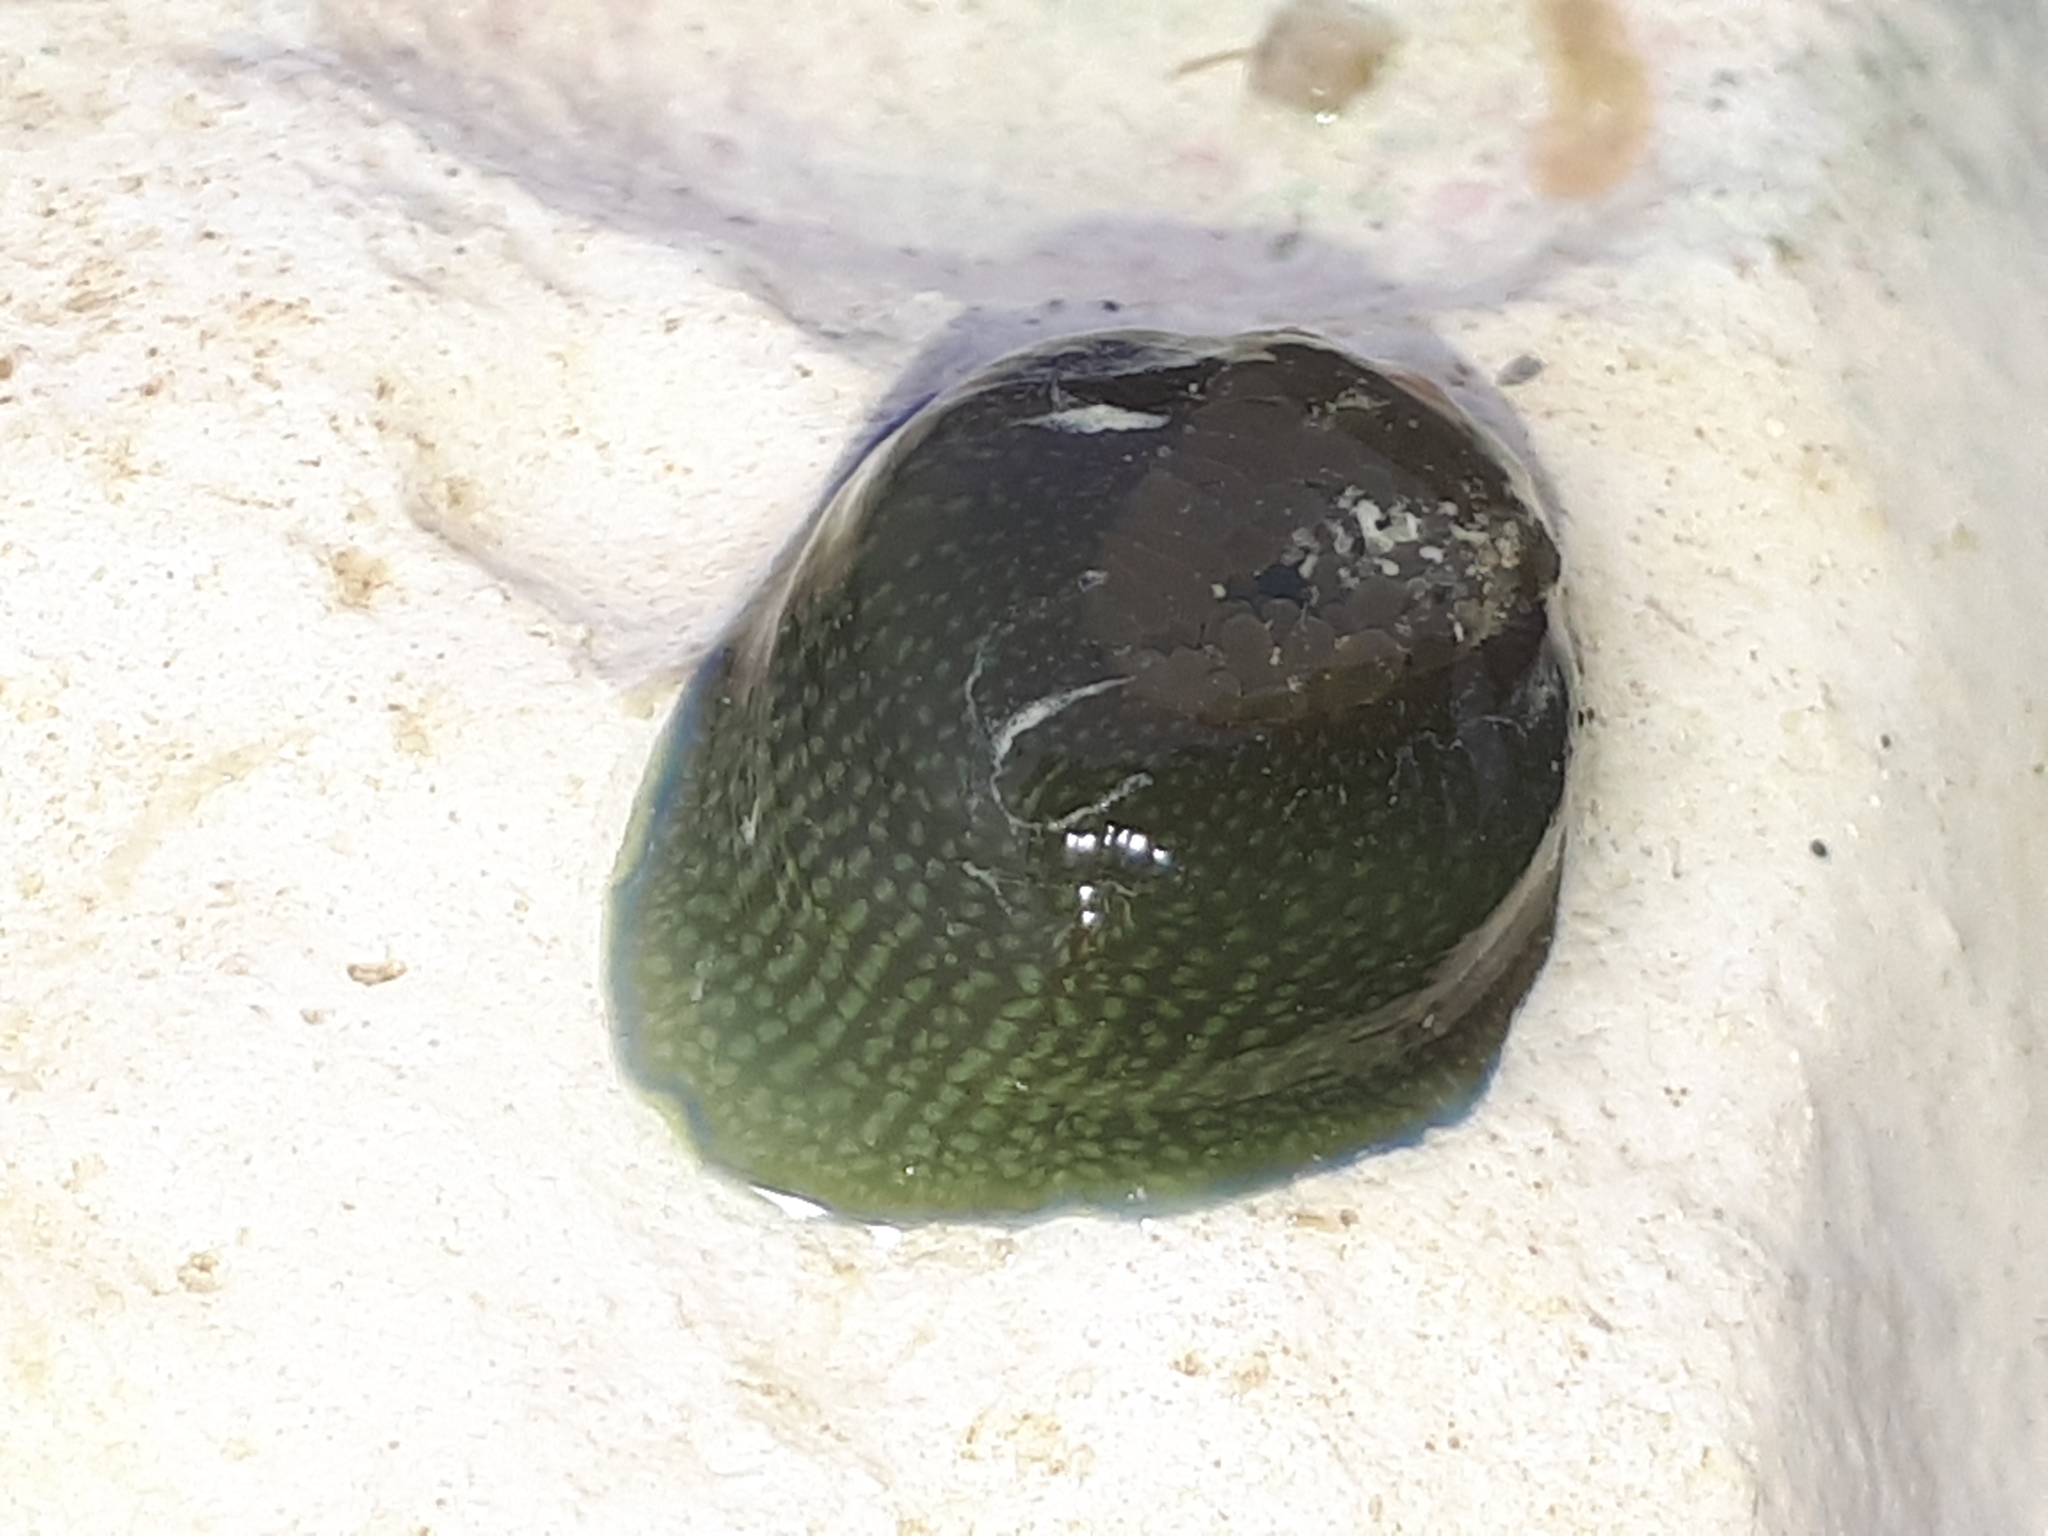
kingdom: Animalia
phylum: Cnidaria
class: Anthozoa
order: Actiniaria
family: Actiniidae
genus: Actinia
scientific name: Actinia equina
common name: Beadlet anemone
